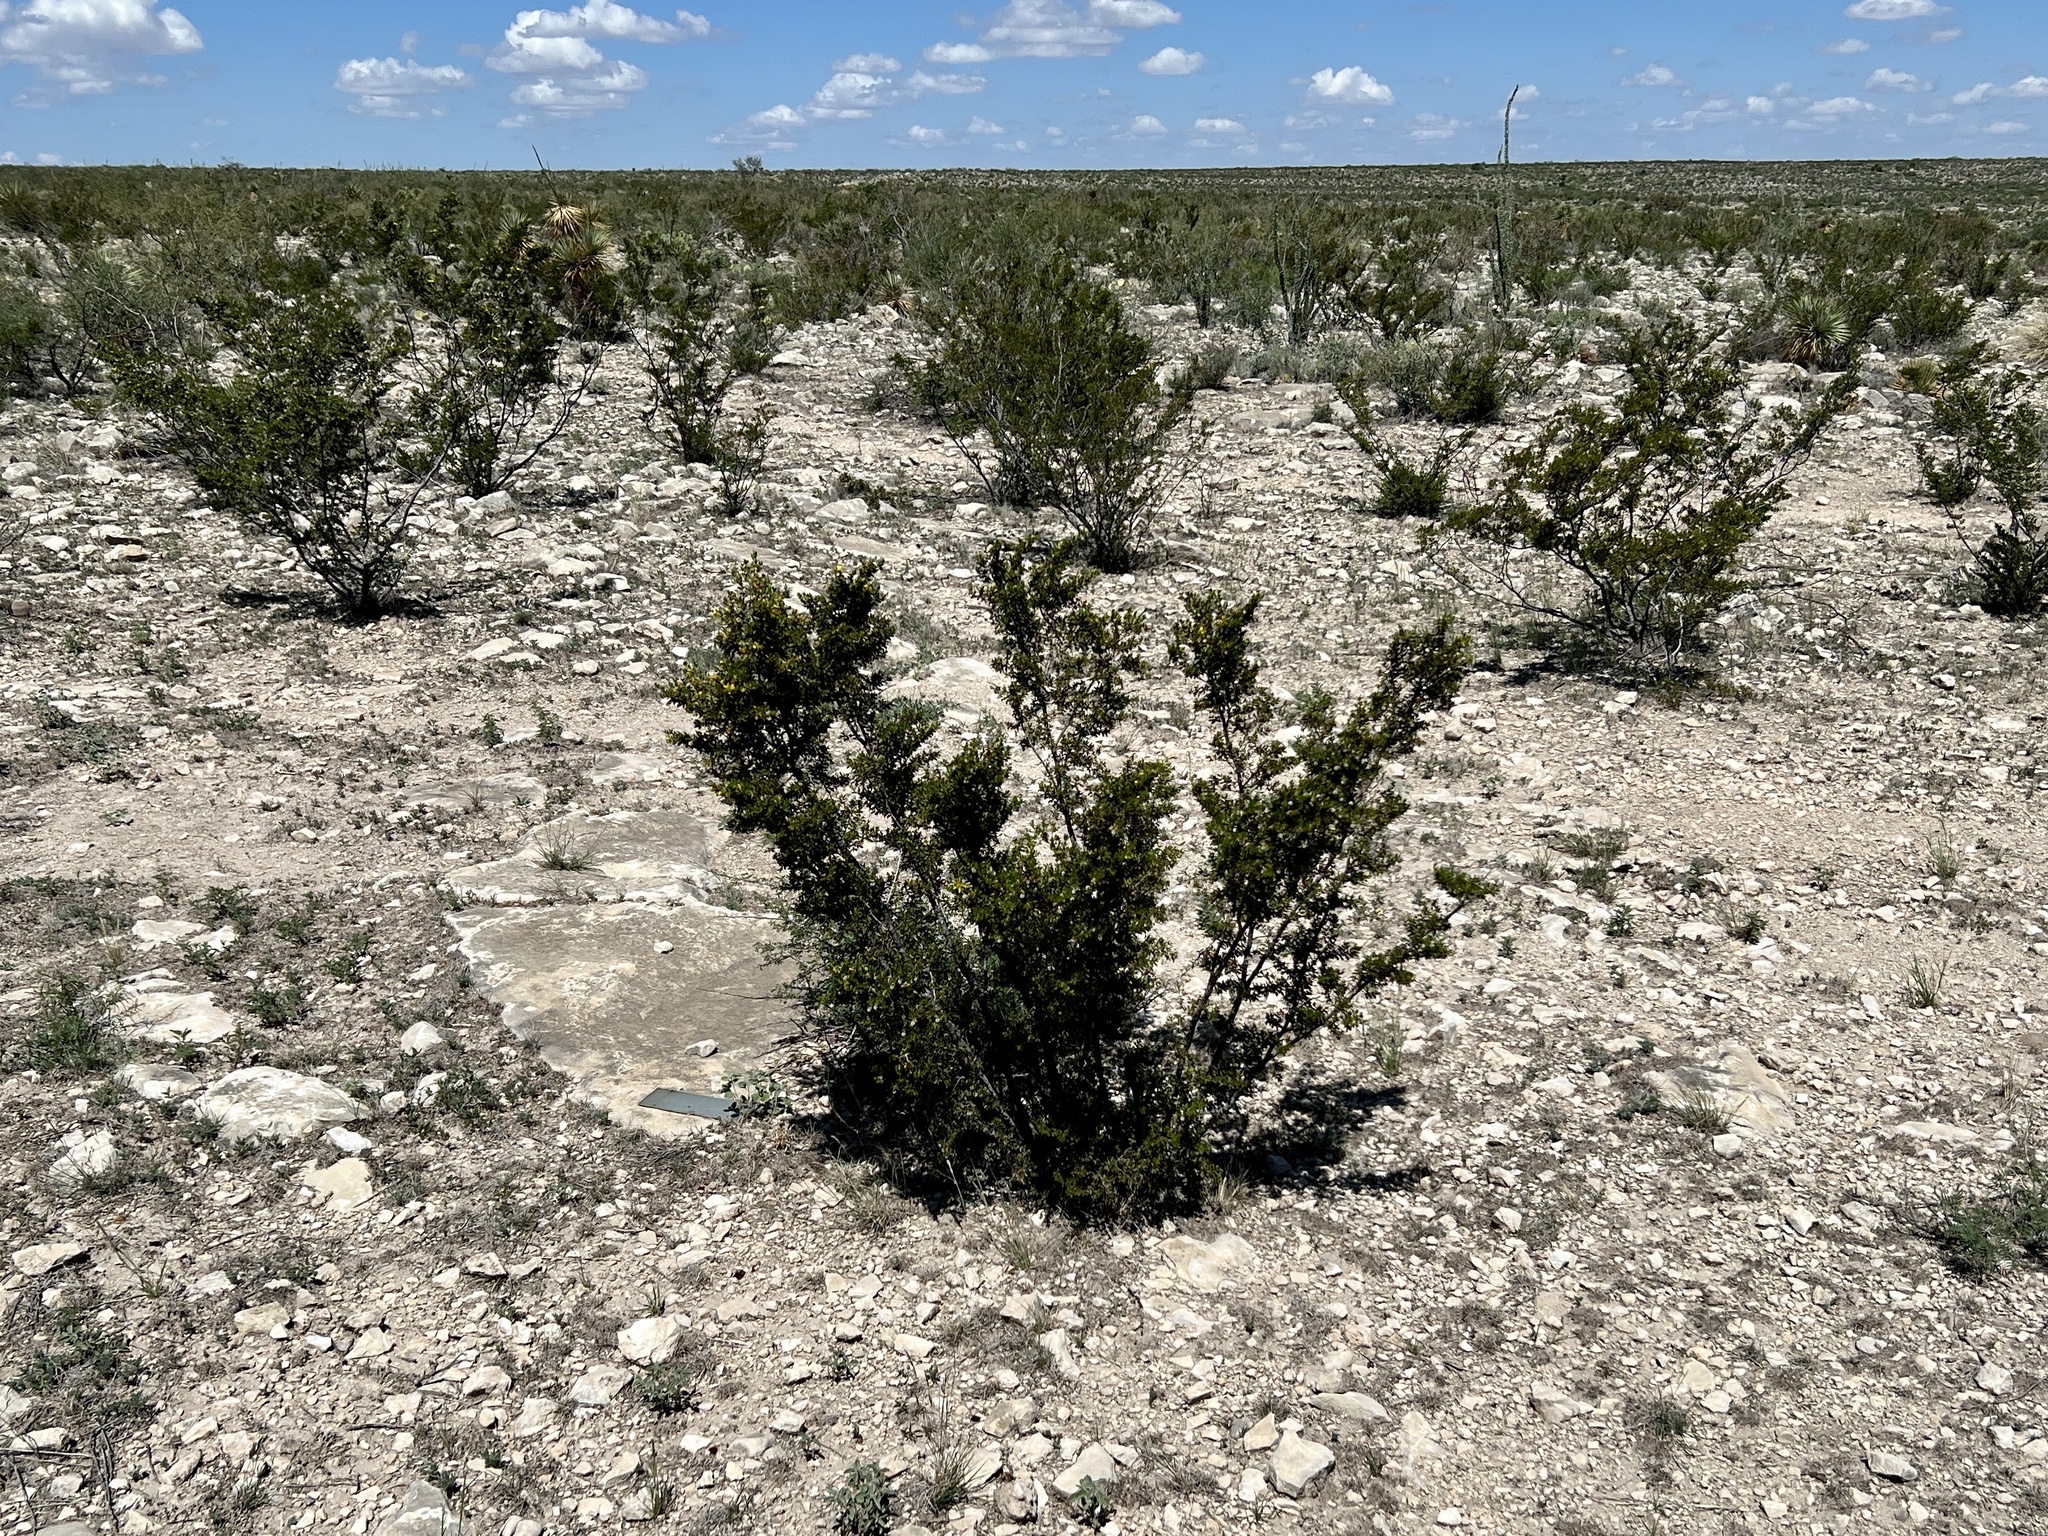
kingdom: Plantae
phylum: Tracheophyta
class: Magnoliopsida
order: Zygophyllales
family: Zygophyllaceae
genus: Larrea
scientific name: Larrea tridentata
